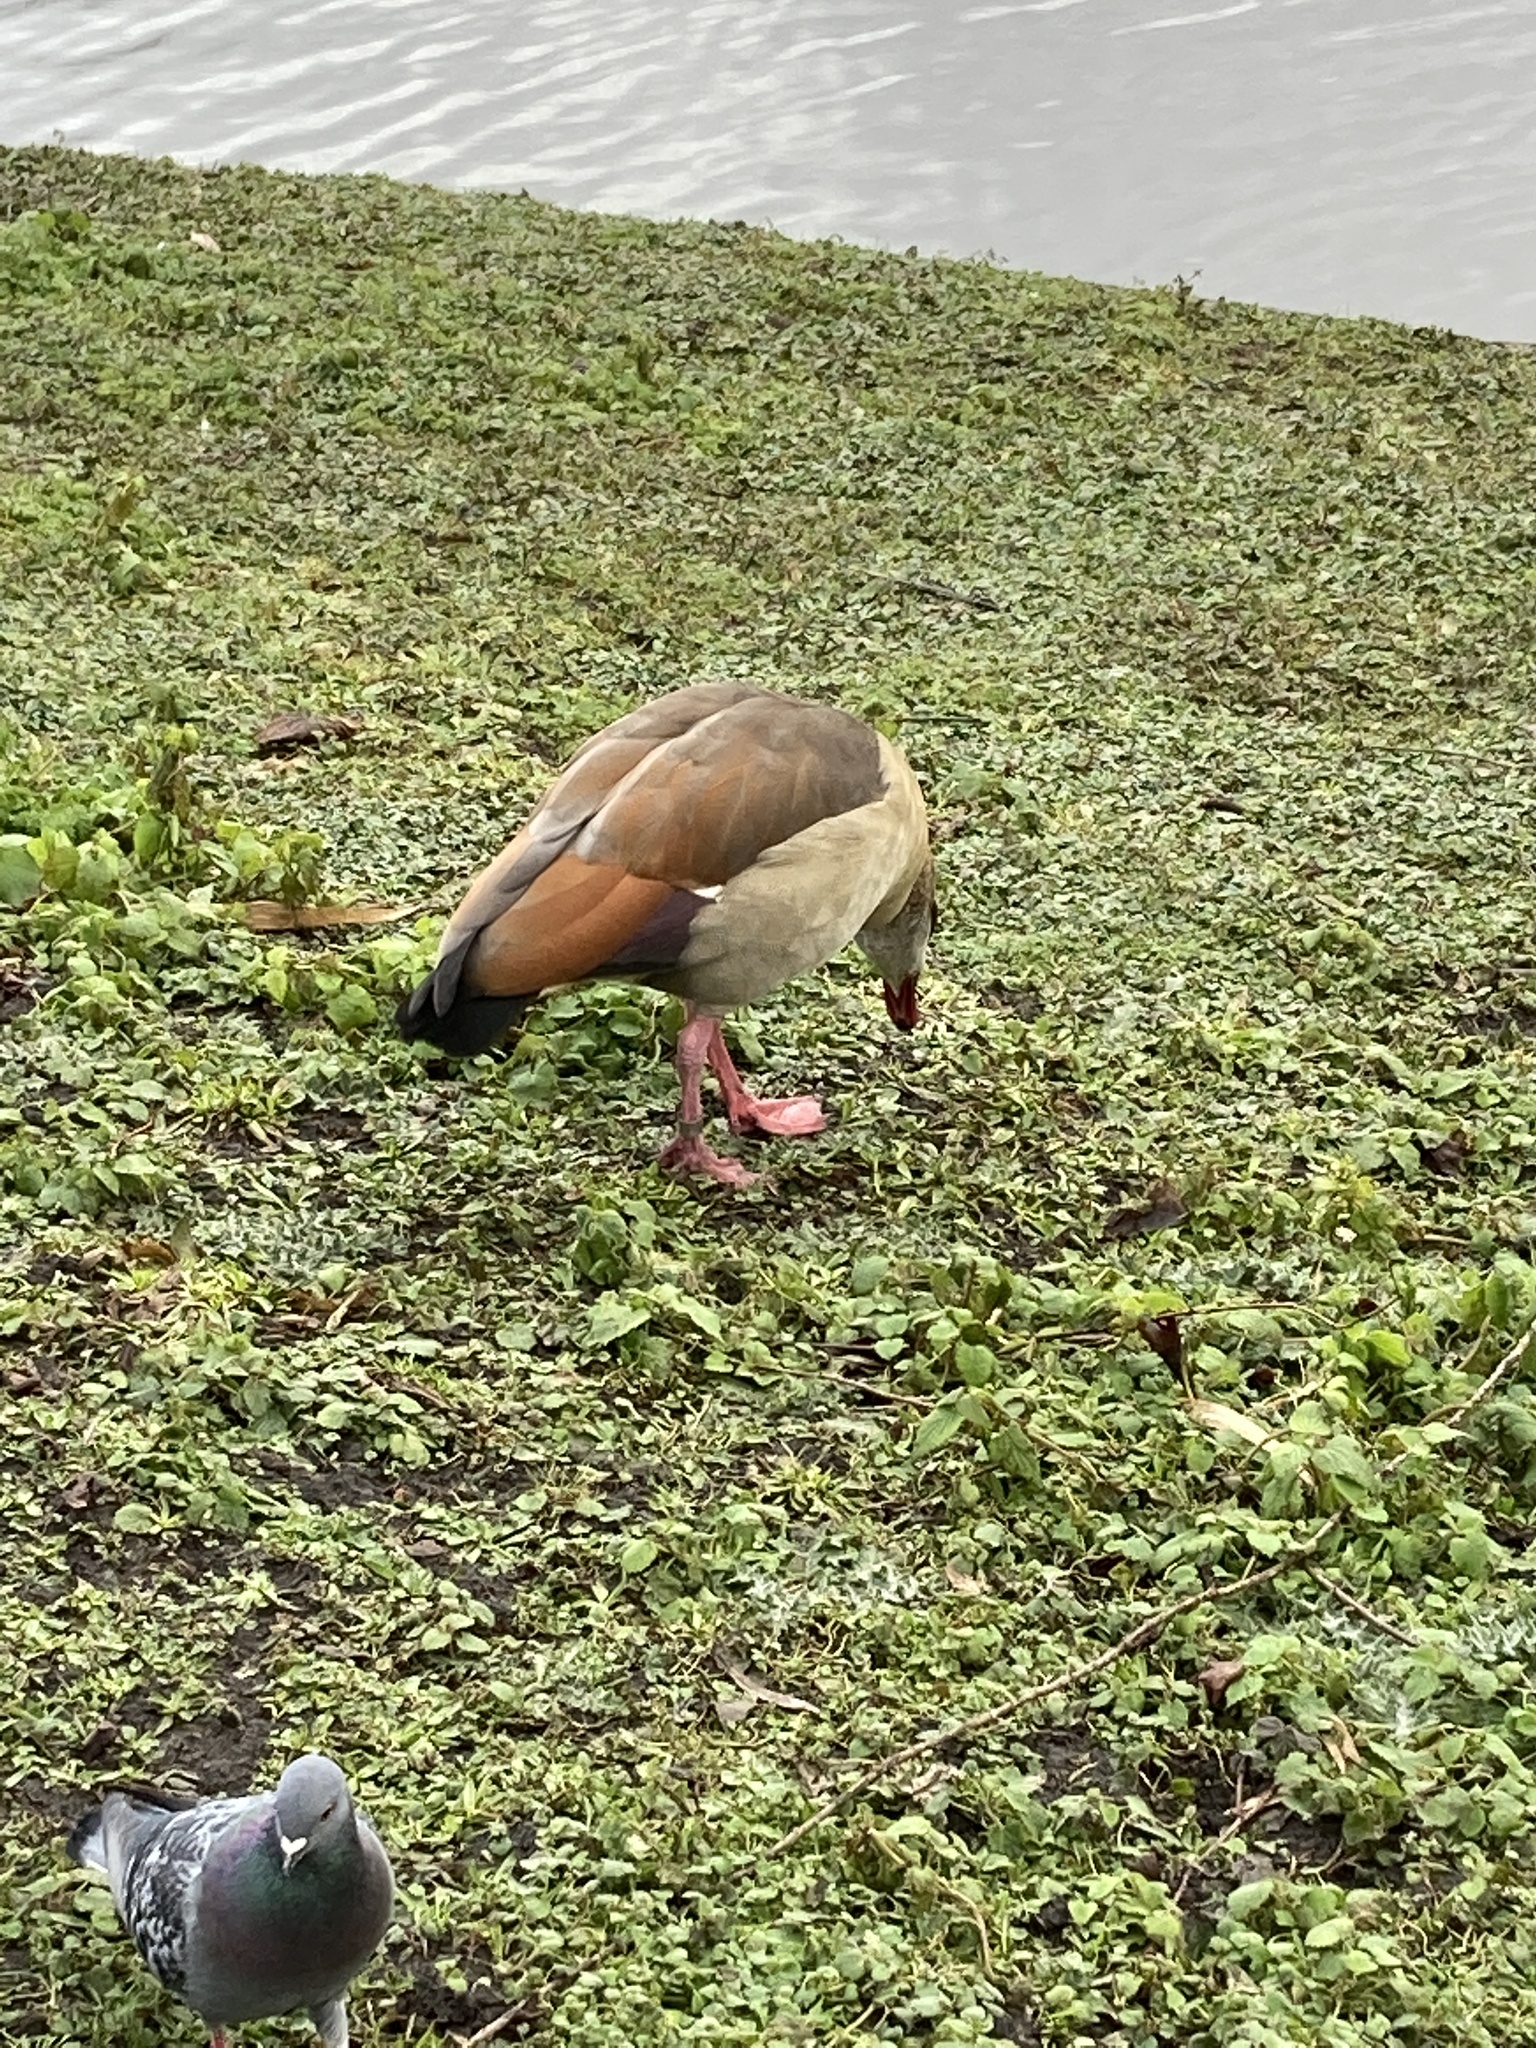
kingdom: Animalia
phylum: Chordata
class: Aves
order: Anseriformes
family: Anatidae
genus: Alopochen
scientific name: Alopochen aegyptiaca
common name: Egyptian goose
